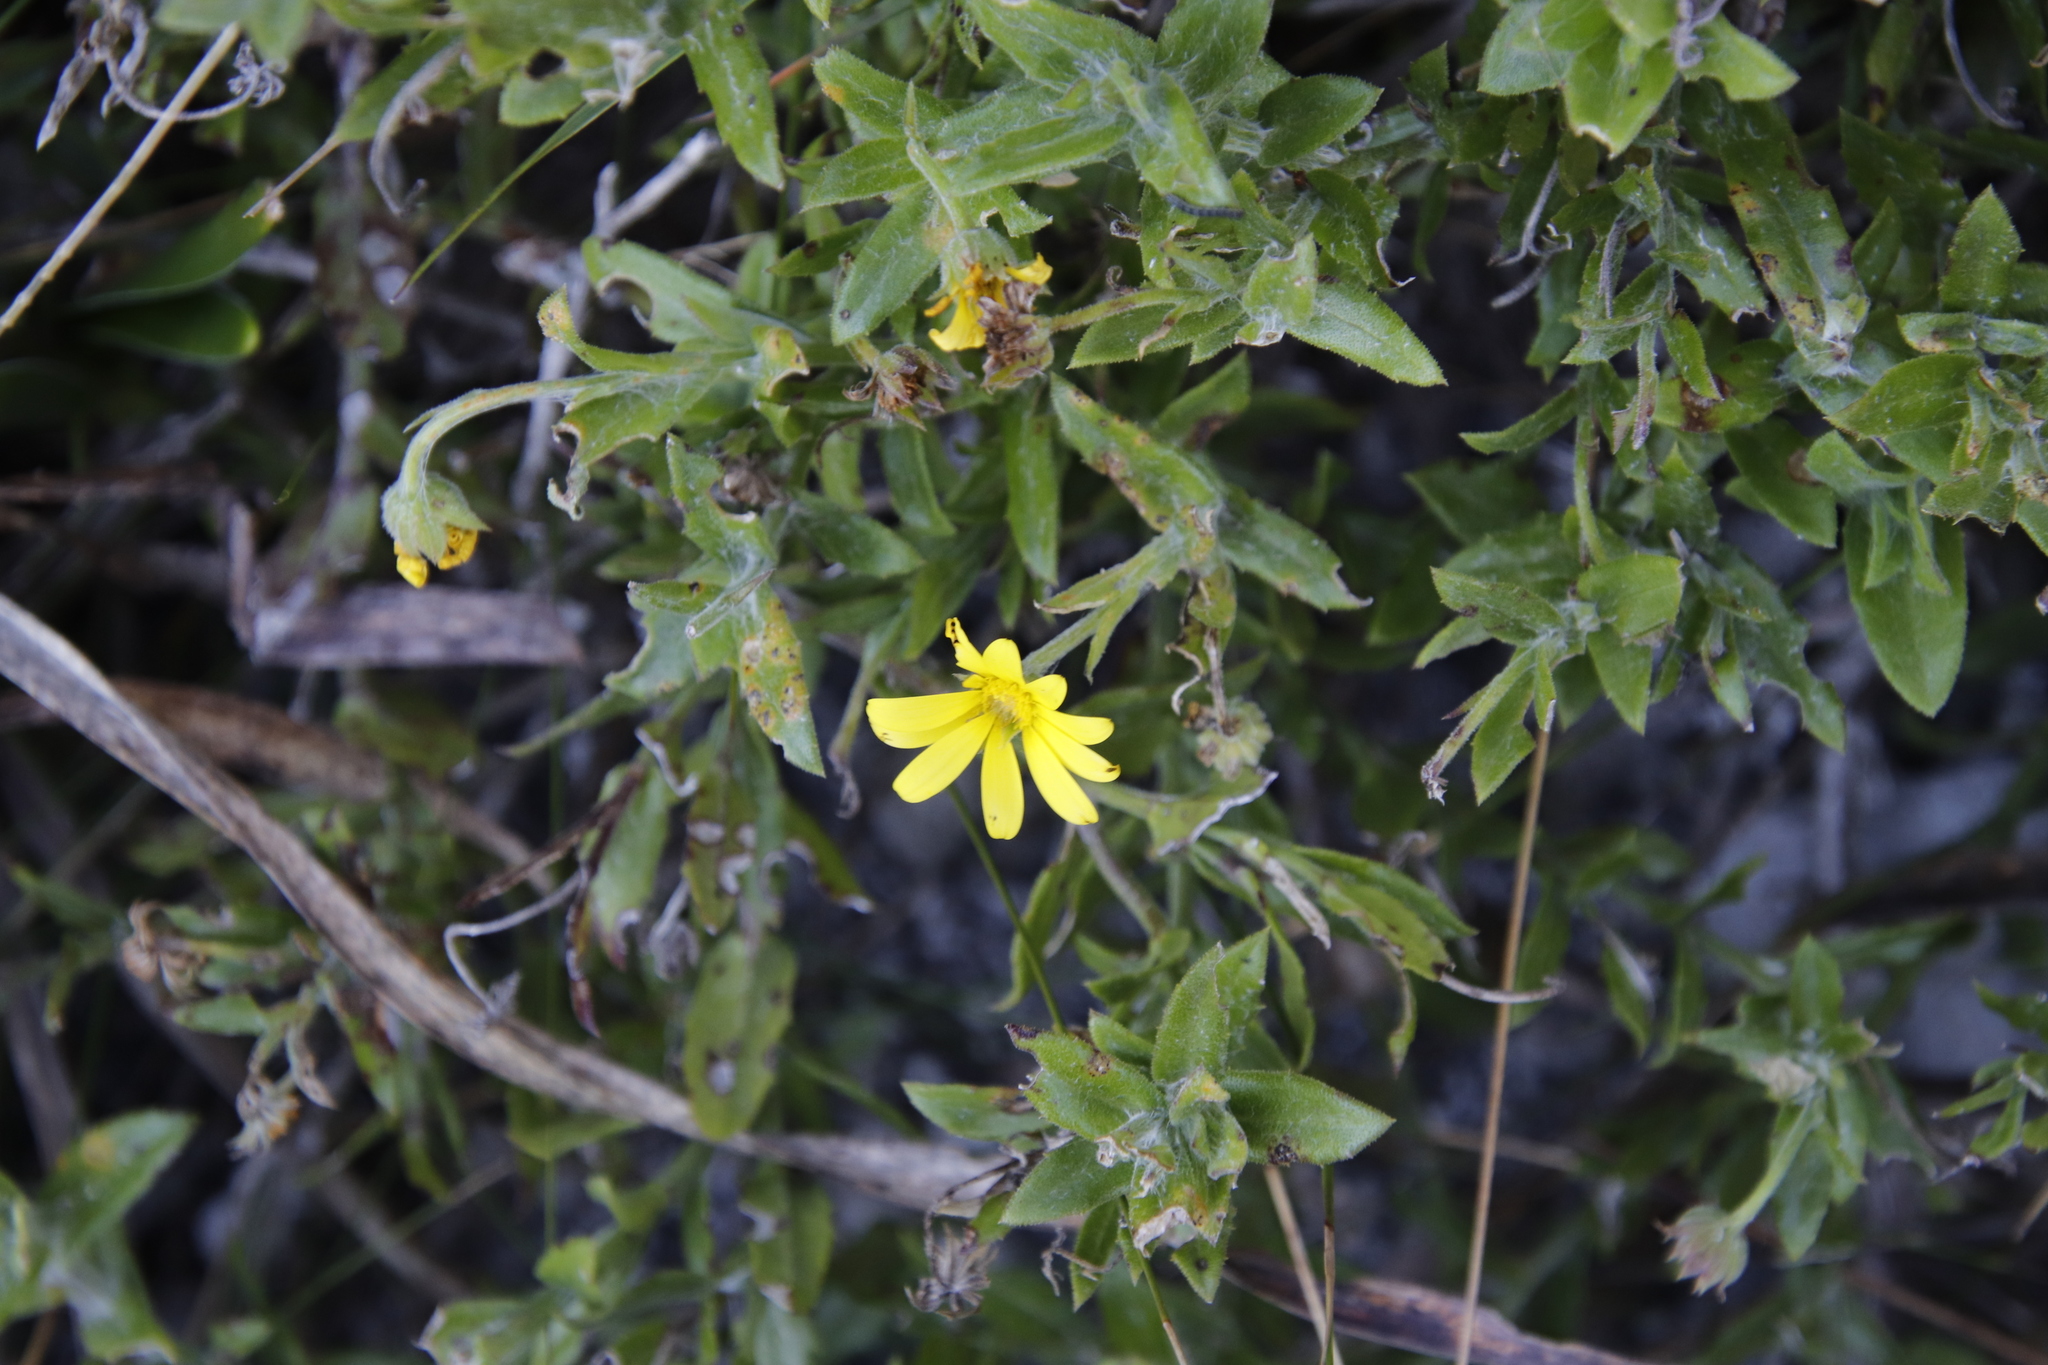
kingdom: Plantae
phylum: Tracheophyta
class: Magnoliopsida
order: Asterales
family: Asteraceae
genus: Osteospermum
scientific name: Osteospermum ilicifolium
